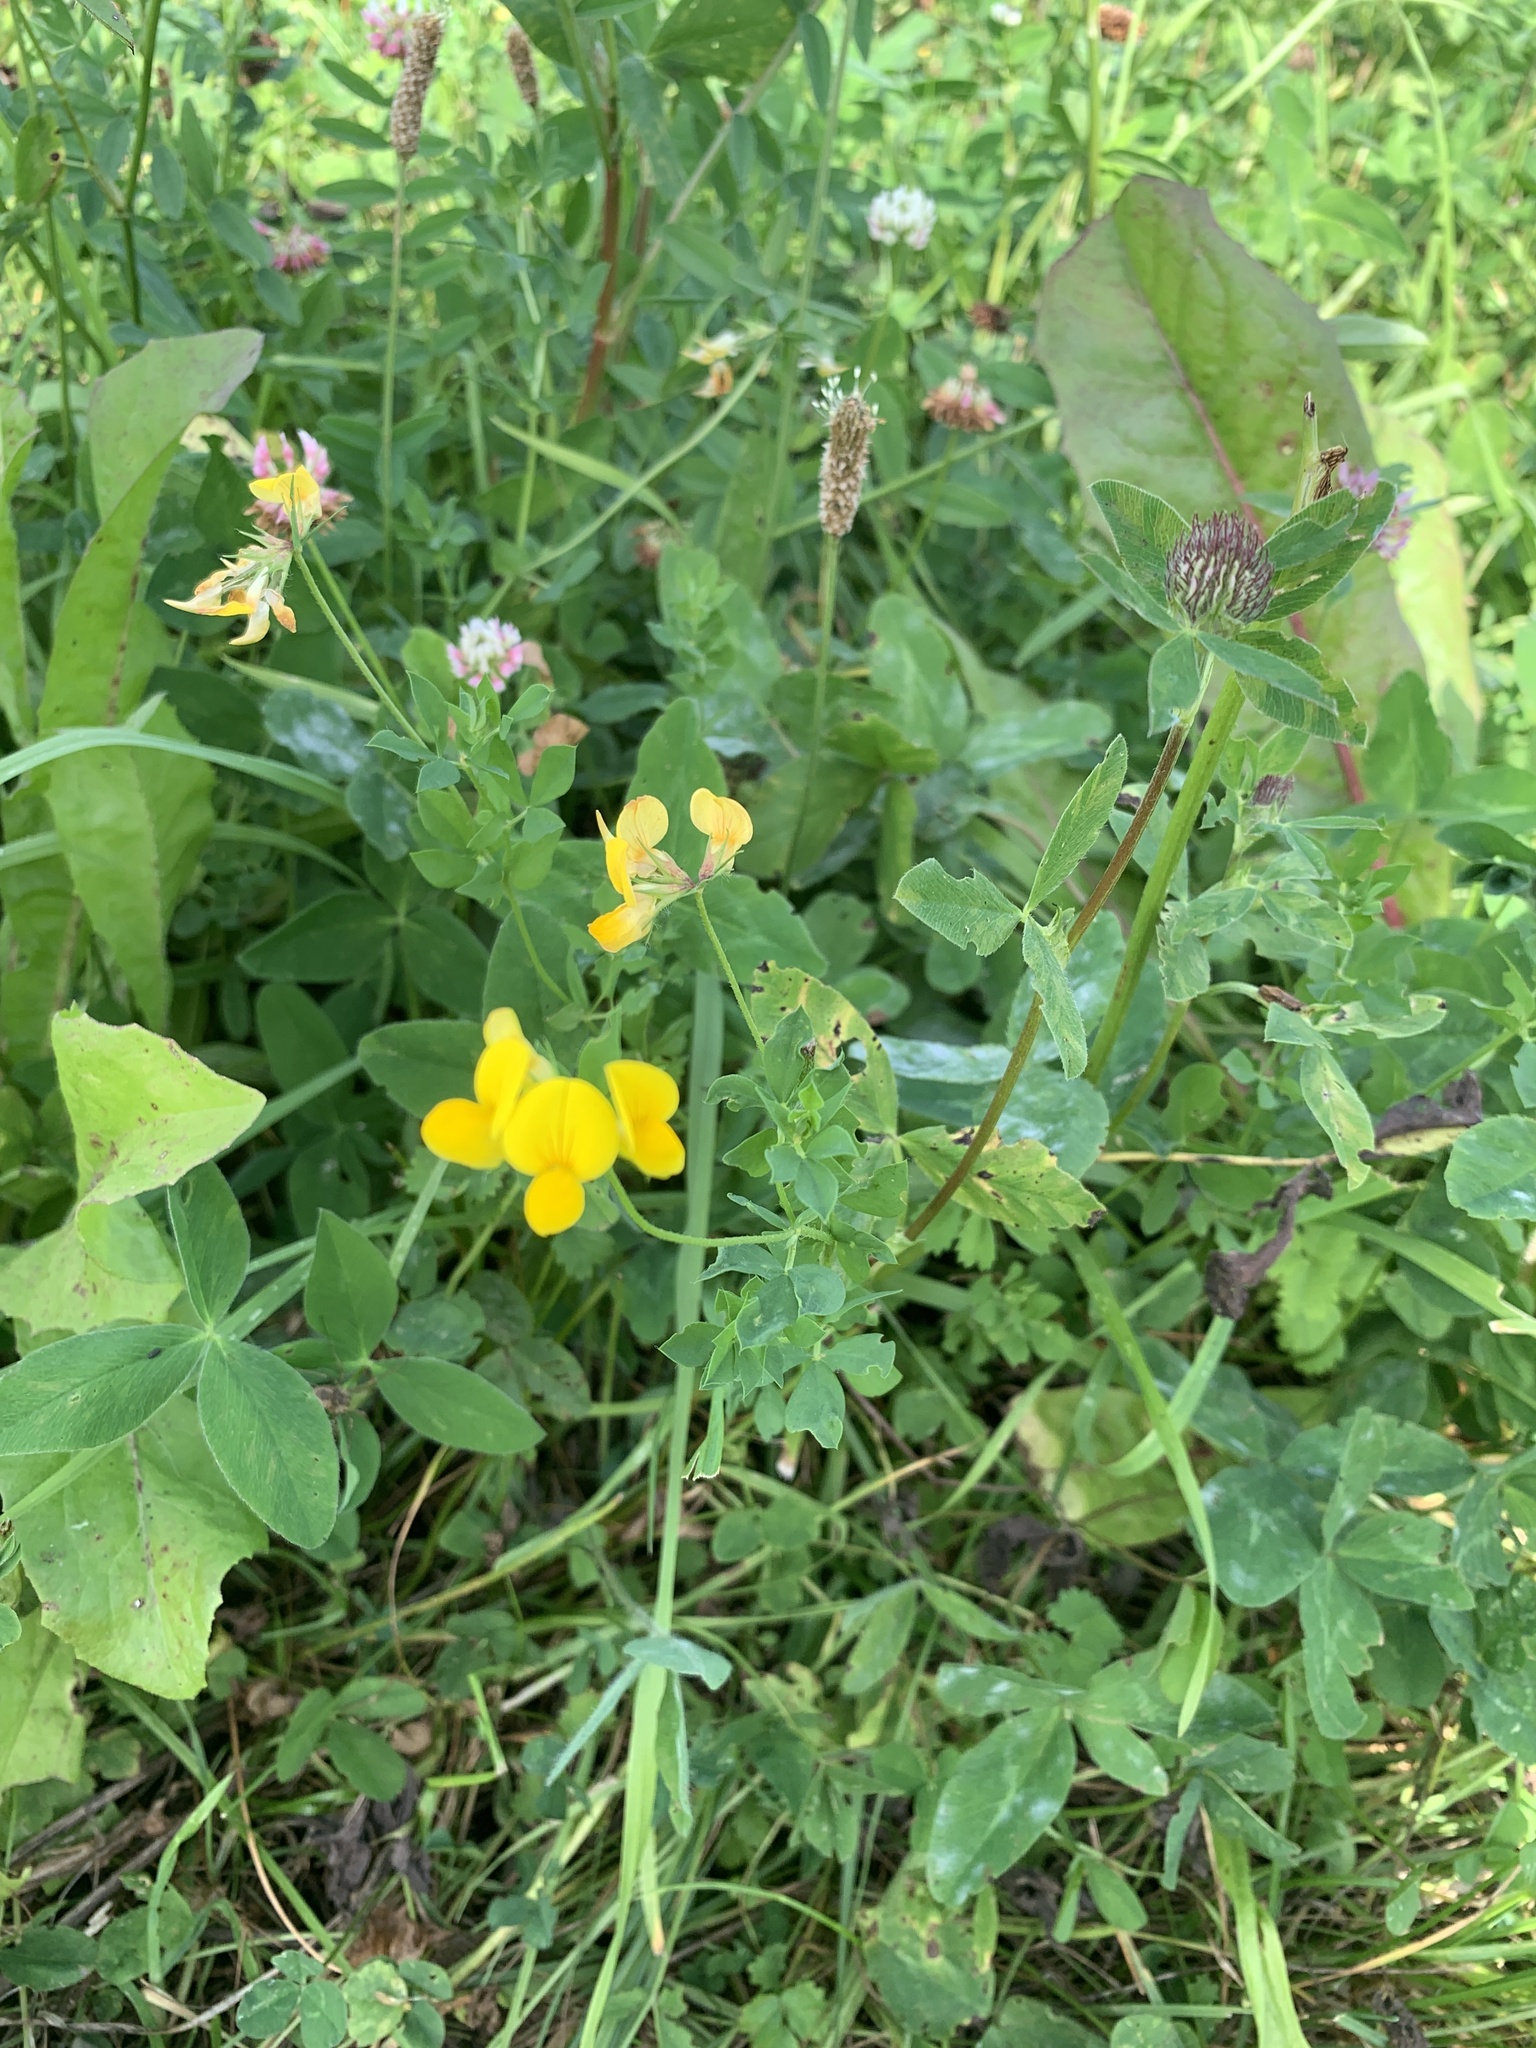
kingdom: Plantae
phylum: Tracheophyta
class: Magnoliopsida
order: Fabales
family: Fabaceae
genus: Lotus
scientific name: Lotus corniculatus
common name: Common bird's-foot-trefoil
